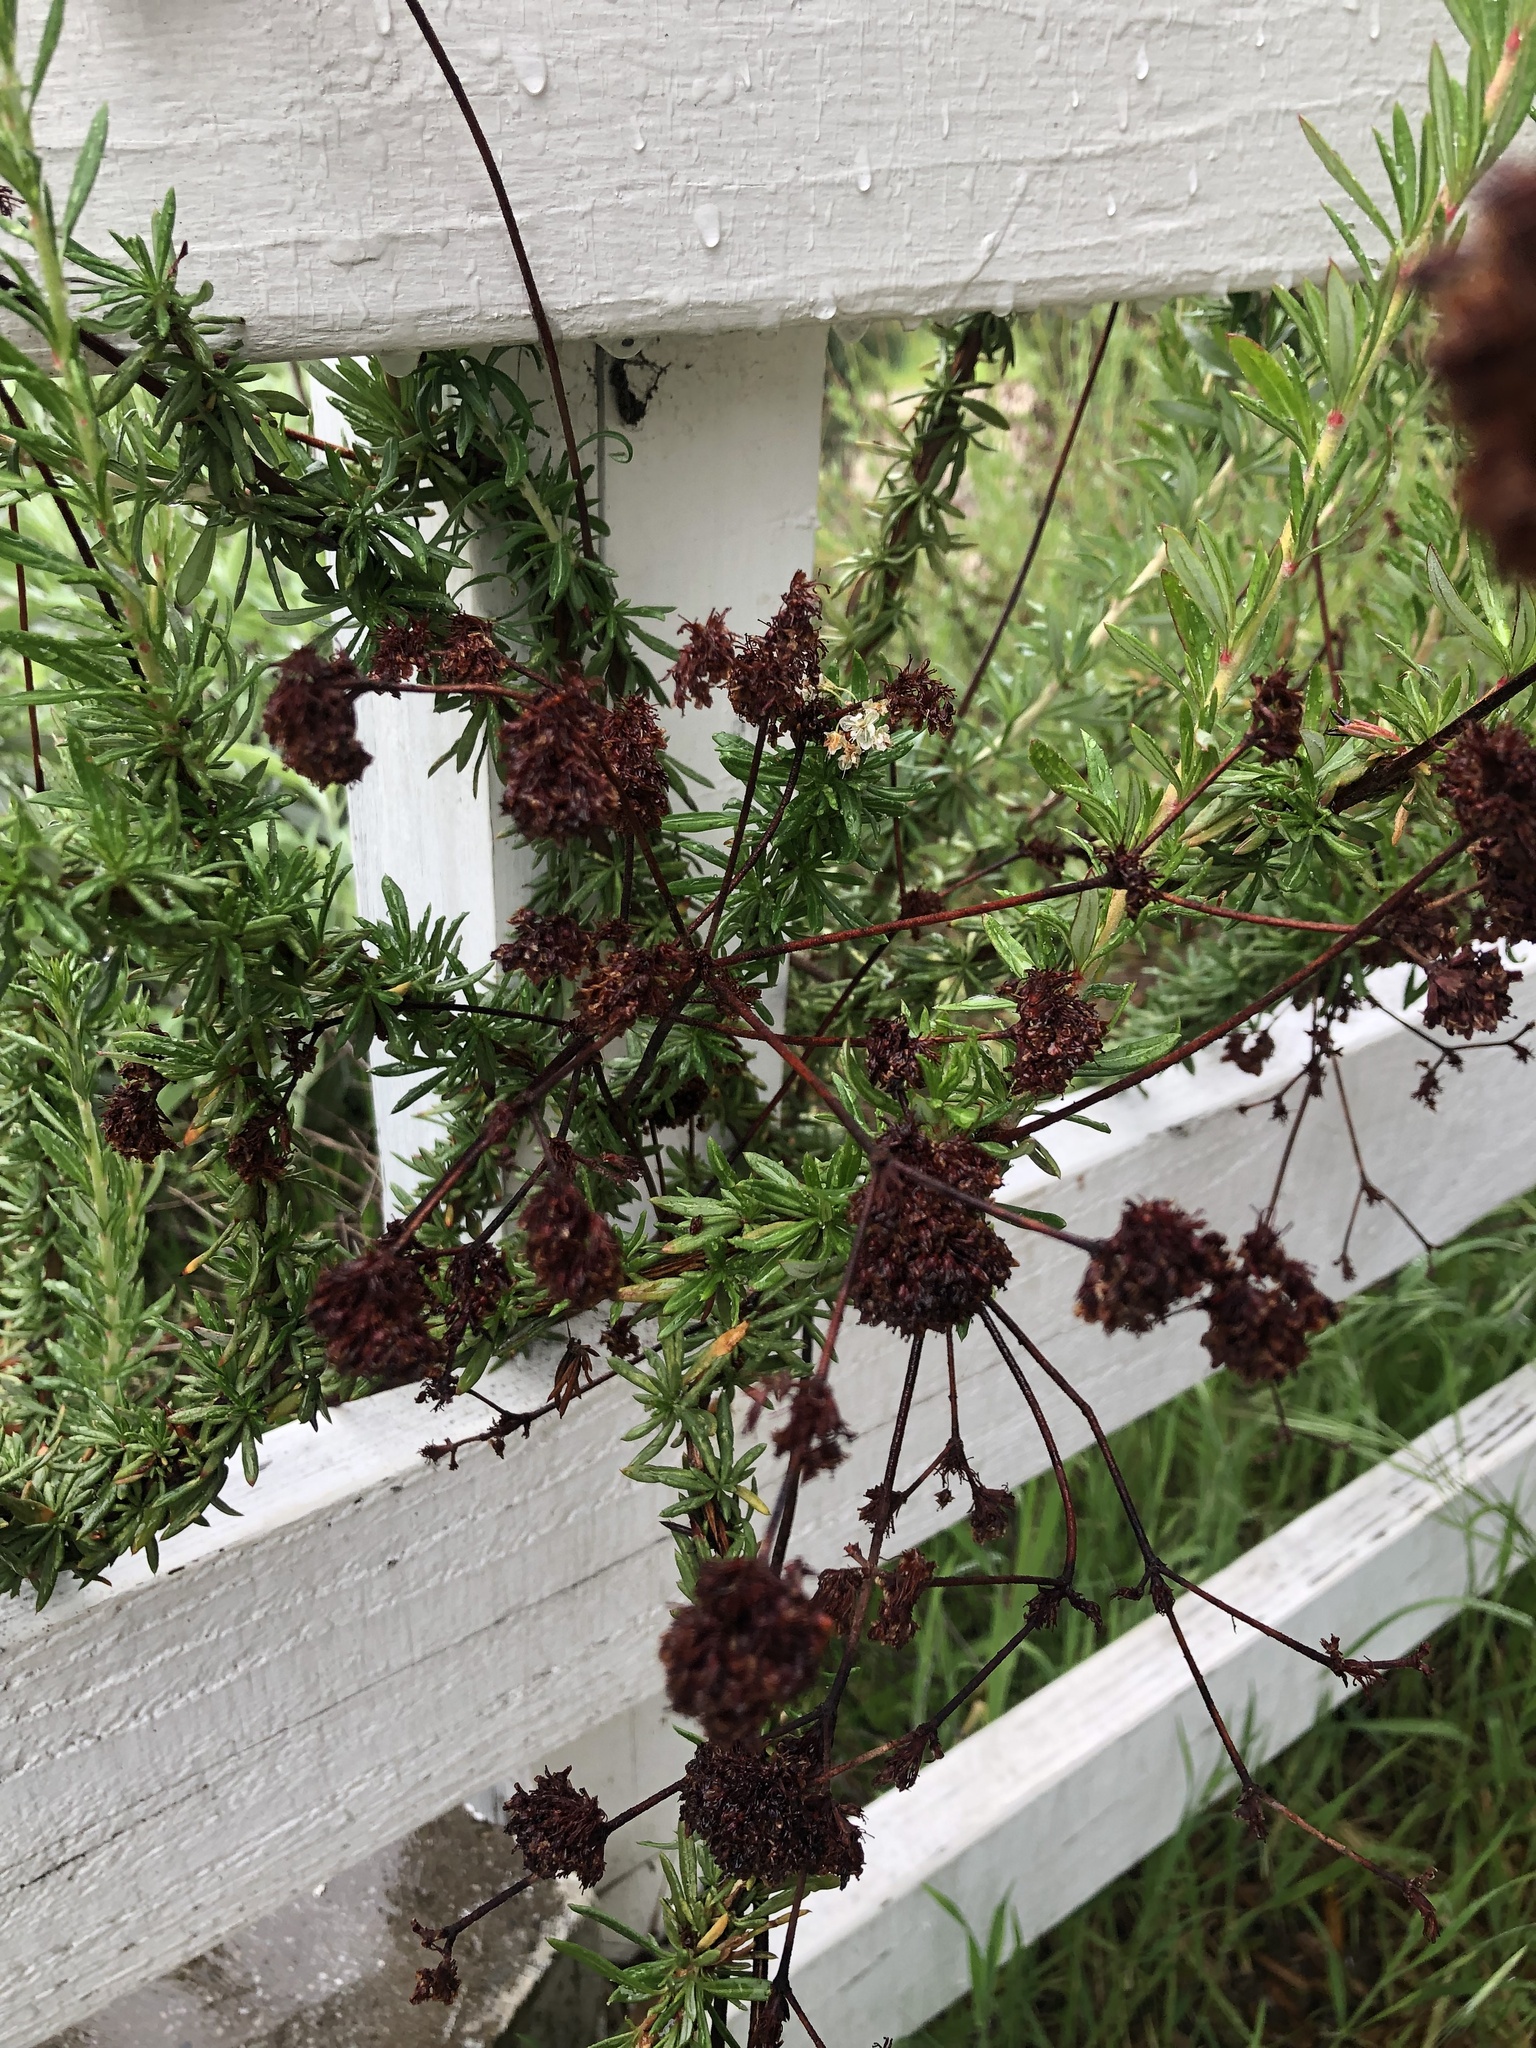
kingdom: Plantae
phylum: Tracheophyta
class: Magnoliopsida
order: Caryophyllales
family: Polygonaceae
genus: Eriogonum
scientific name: Eriogonum fasciculatum
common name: California wild buckwheat
